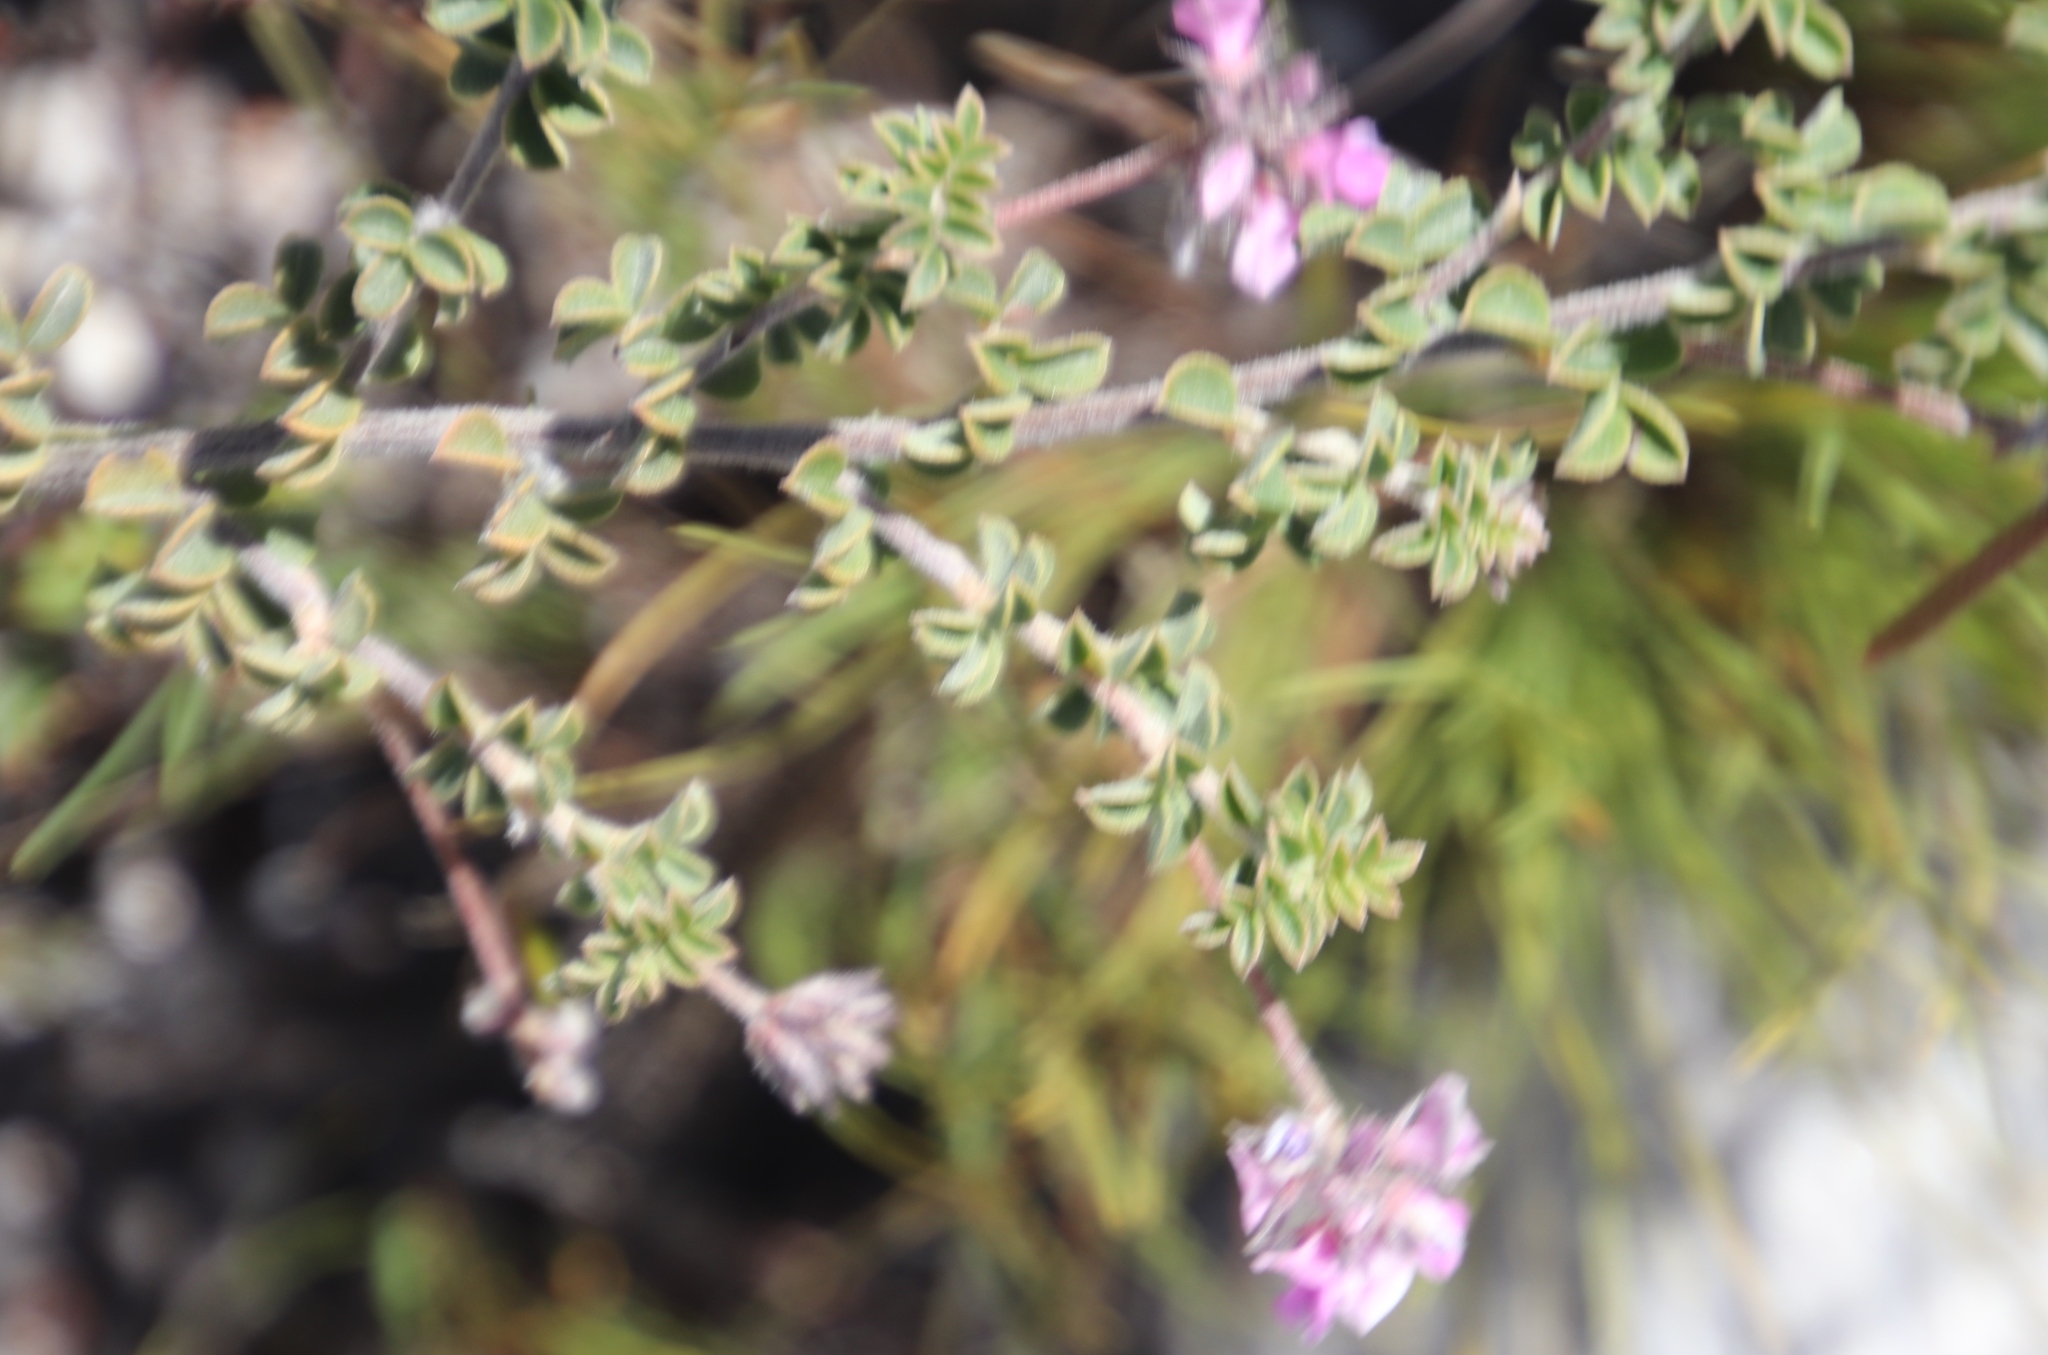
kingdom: Plantae
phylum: Tracheophyta
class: Magnoliopsida
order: Fabales
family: Fabaceae
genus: Indigofera
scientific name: Indigofera alopecuroides
